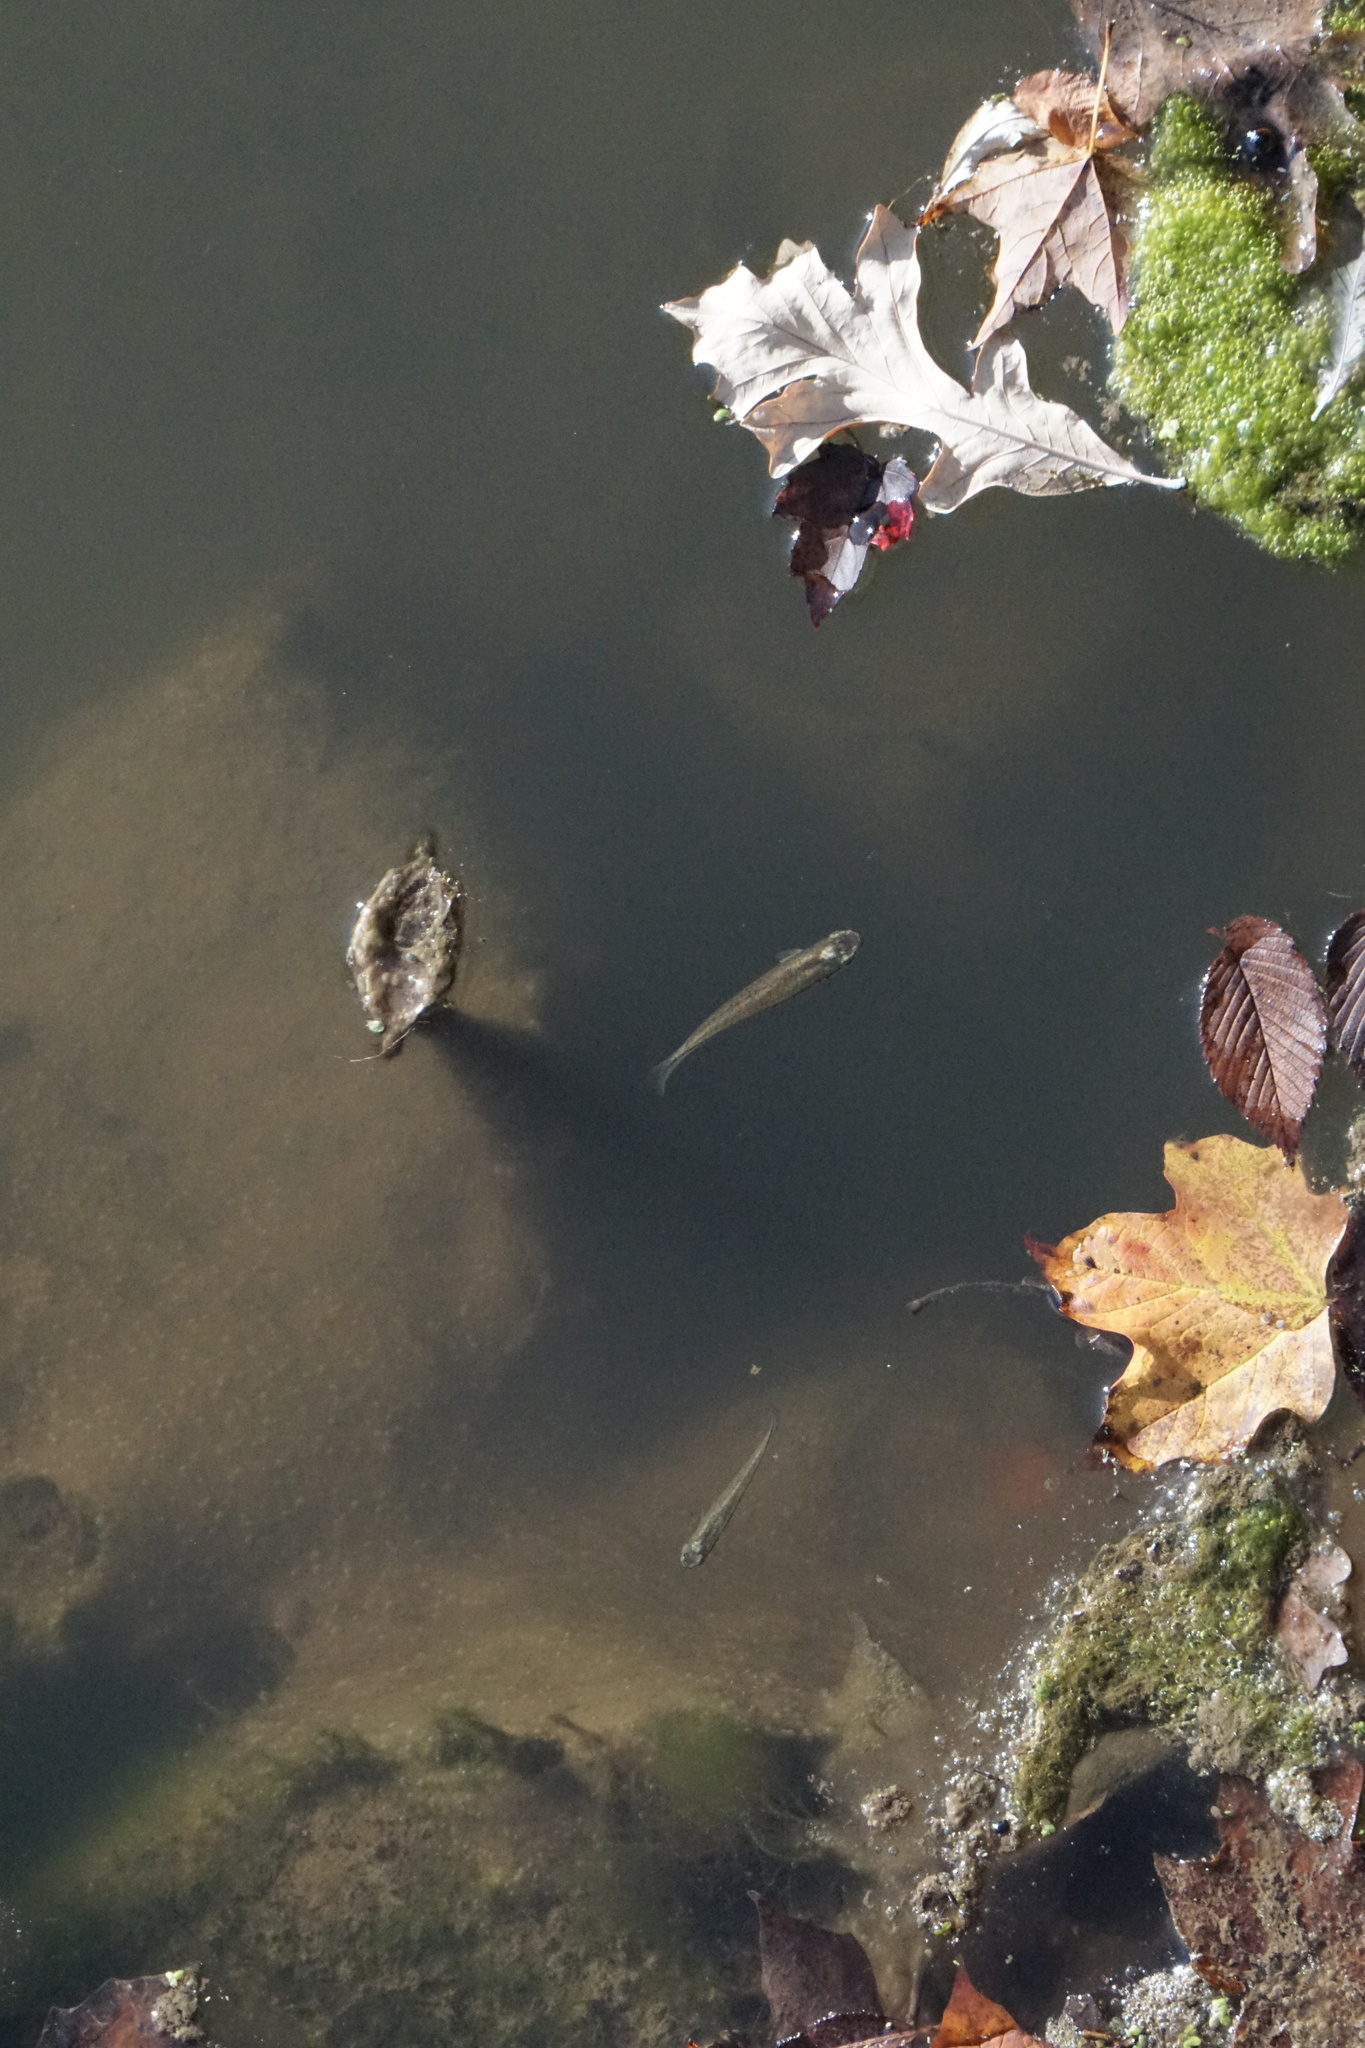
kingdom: Animalia
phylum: Chordata
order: Cyprinodontiformes
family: Fundulidae
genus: Fundulus
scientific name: Fundulus notatus
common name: Blackstripe topminnow
